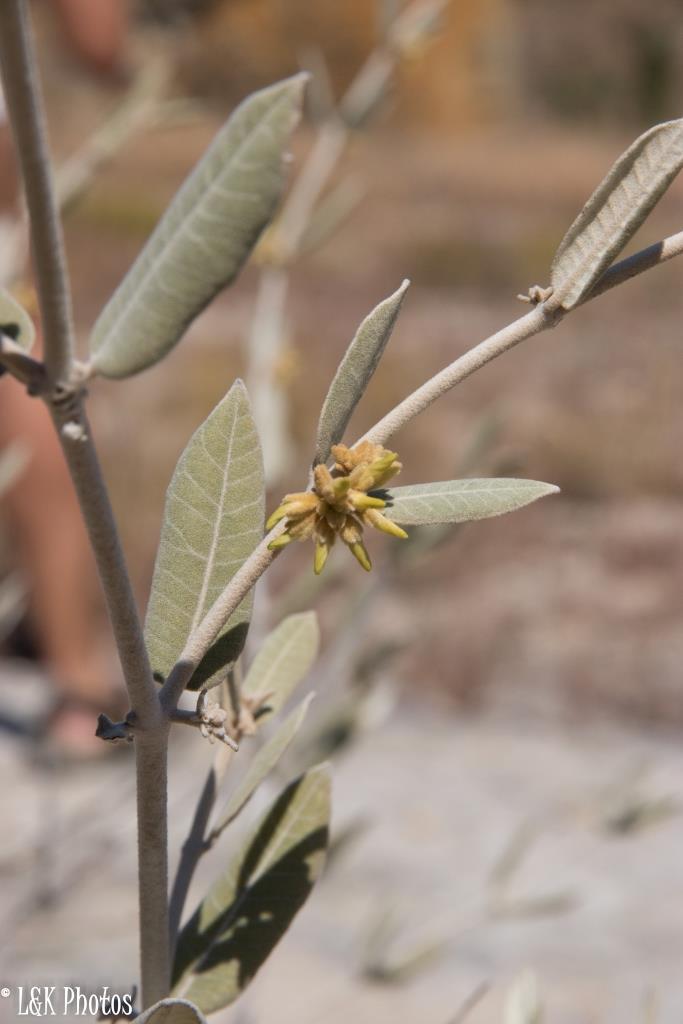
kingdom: Plantae
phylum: Tracheophyta
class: Magnoliopsida
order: Gentianales
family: Apocynaceae
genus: Pervillaea
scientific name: Pervillaea venenata
